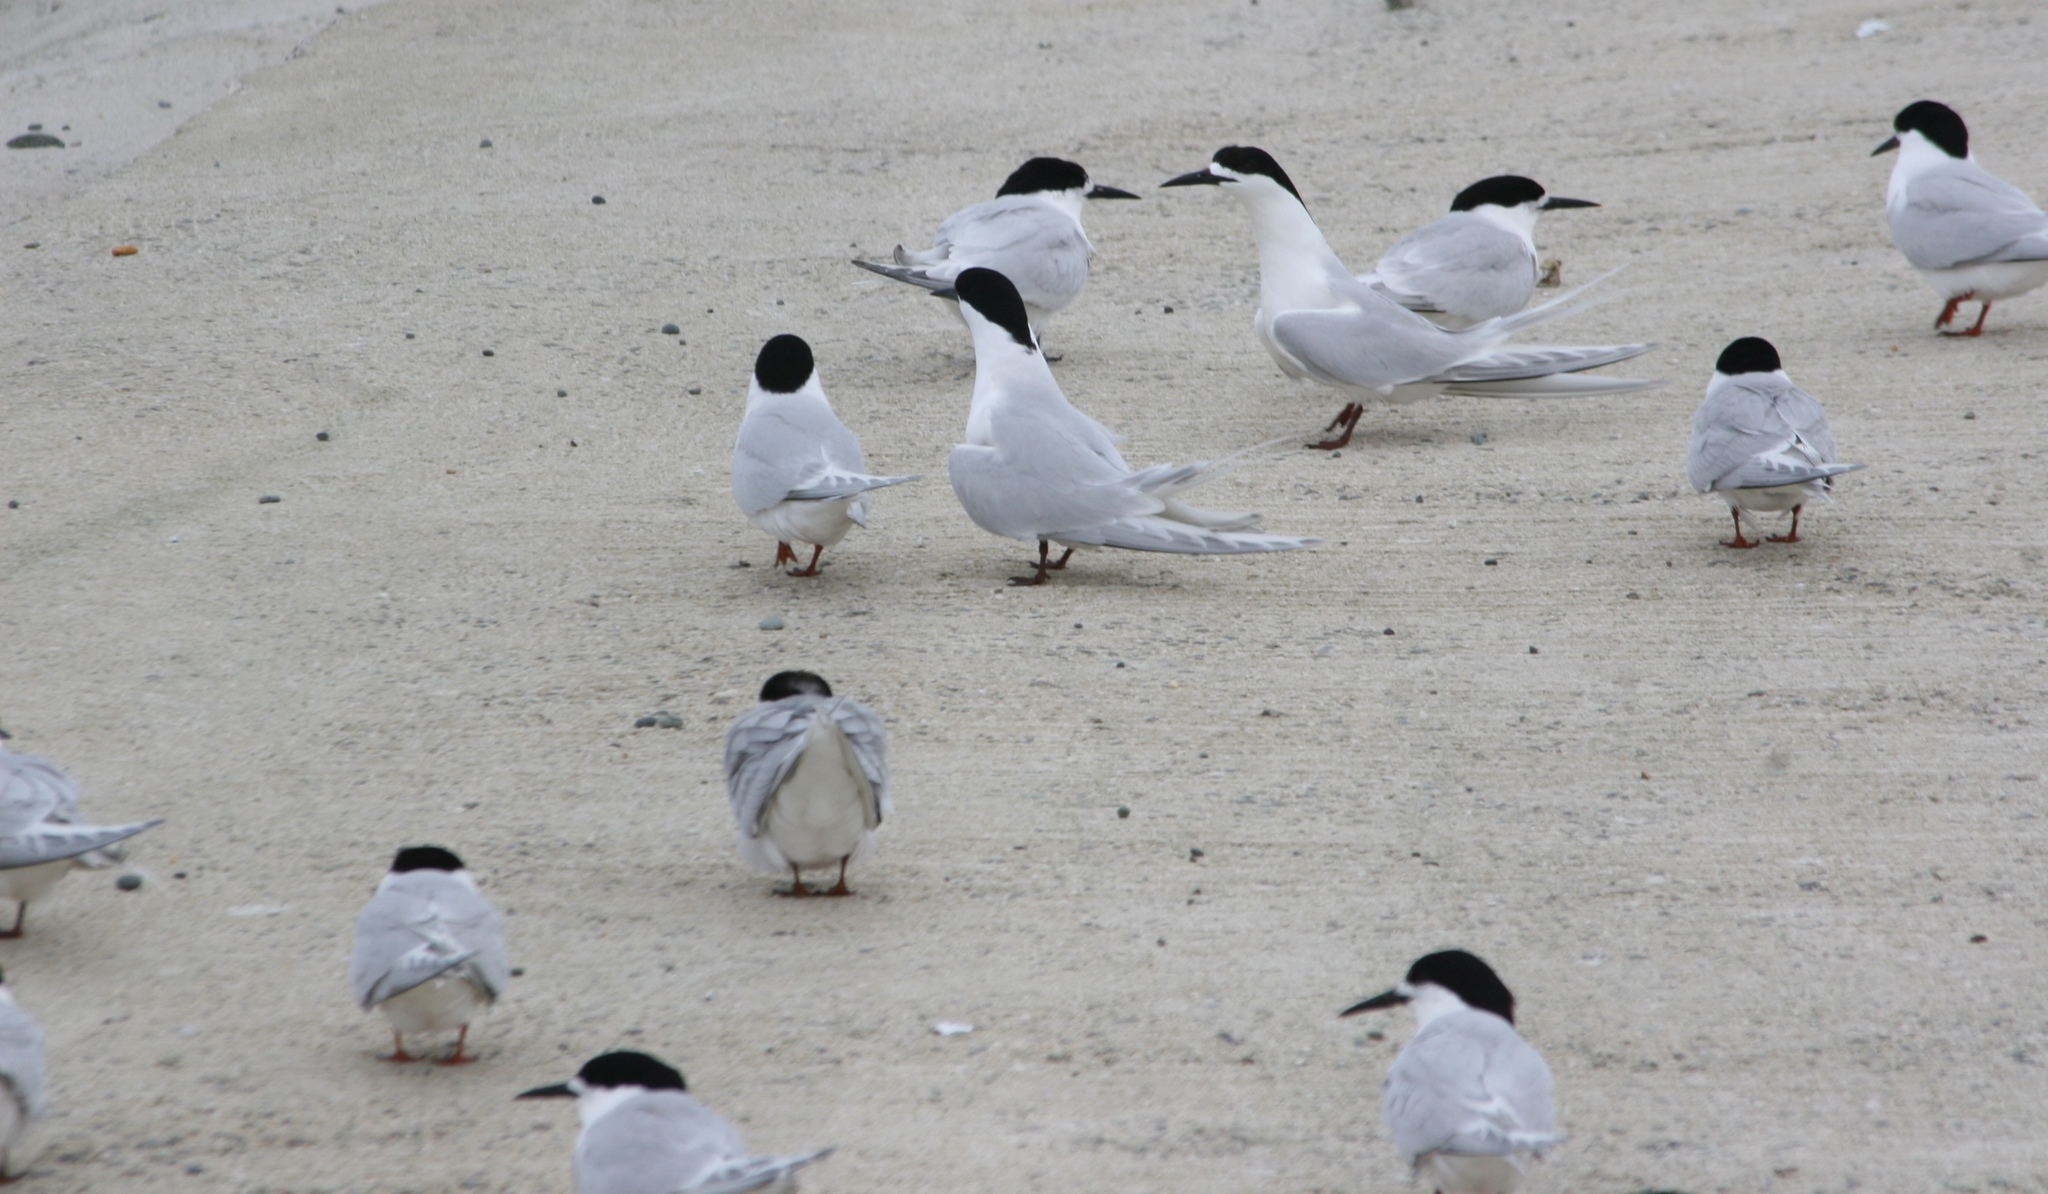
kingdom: Animalia
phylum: Chordata
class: Aves
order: Charadriiformes
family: Laridae
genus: Sterna
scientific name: Sterna striata
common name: White-fronted tern
